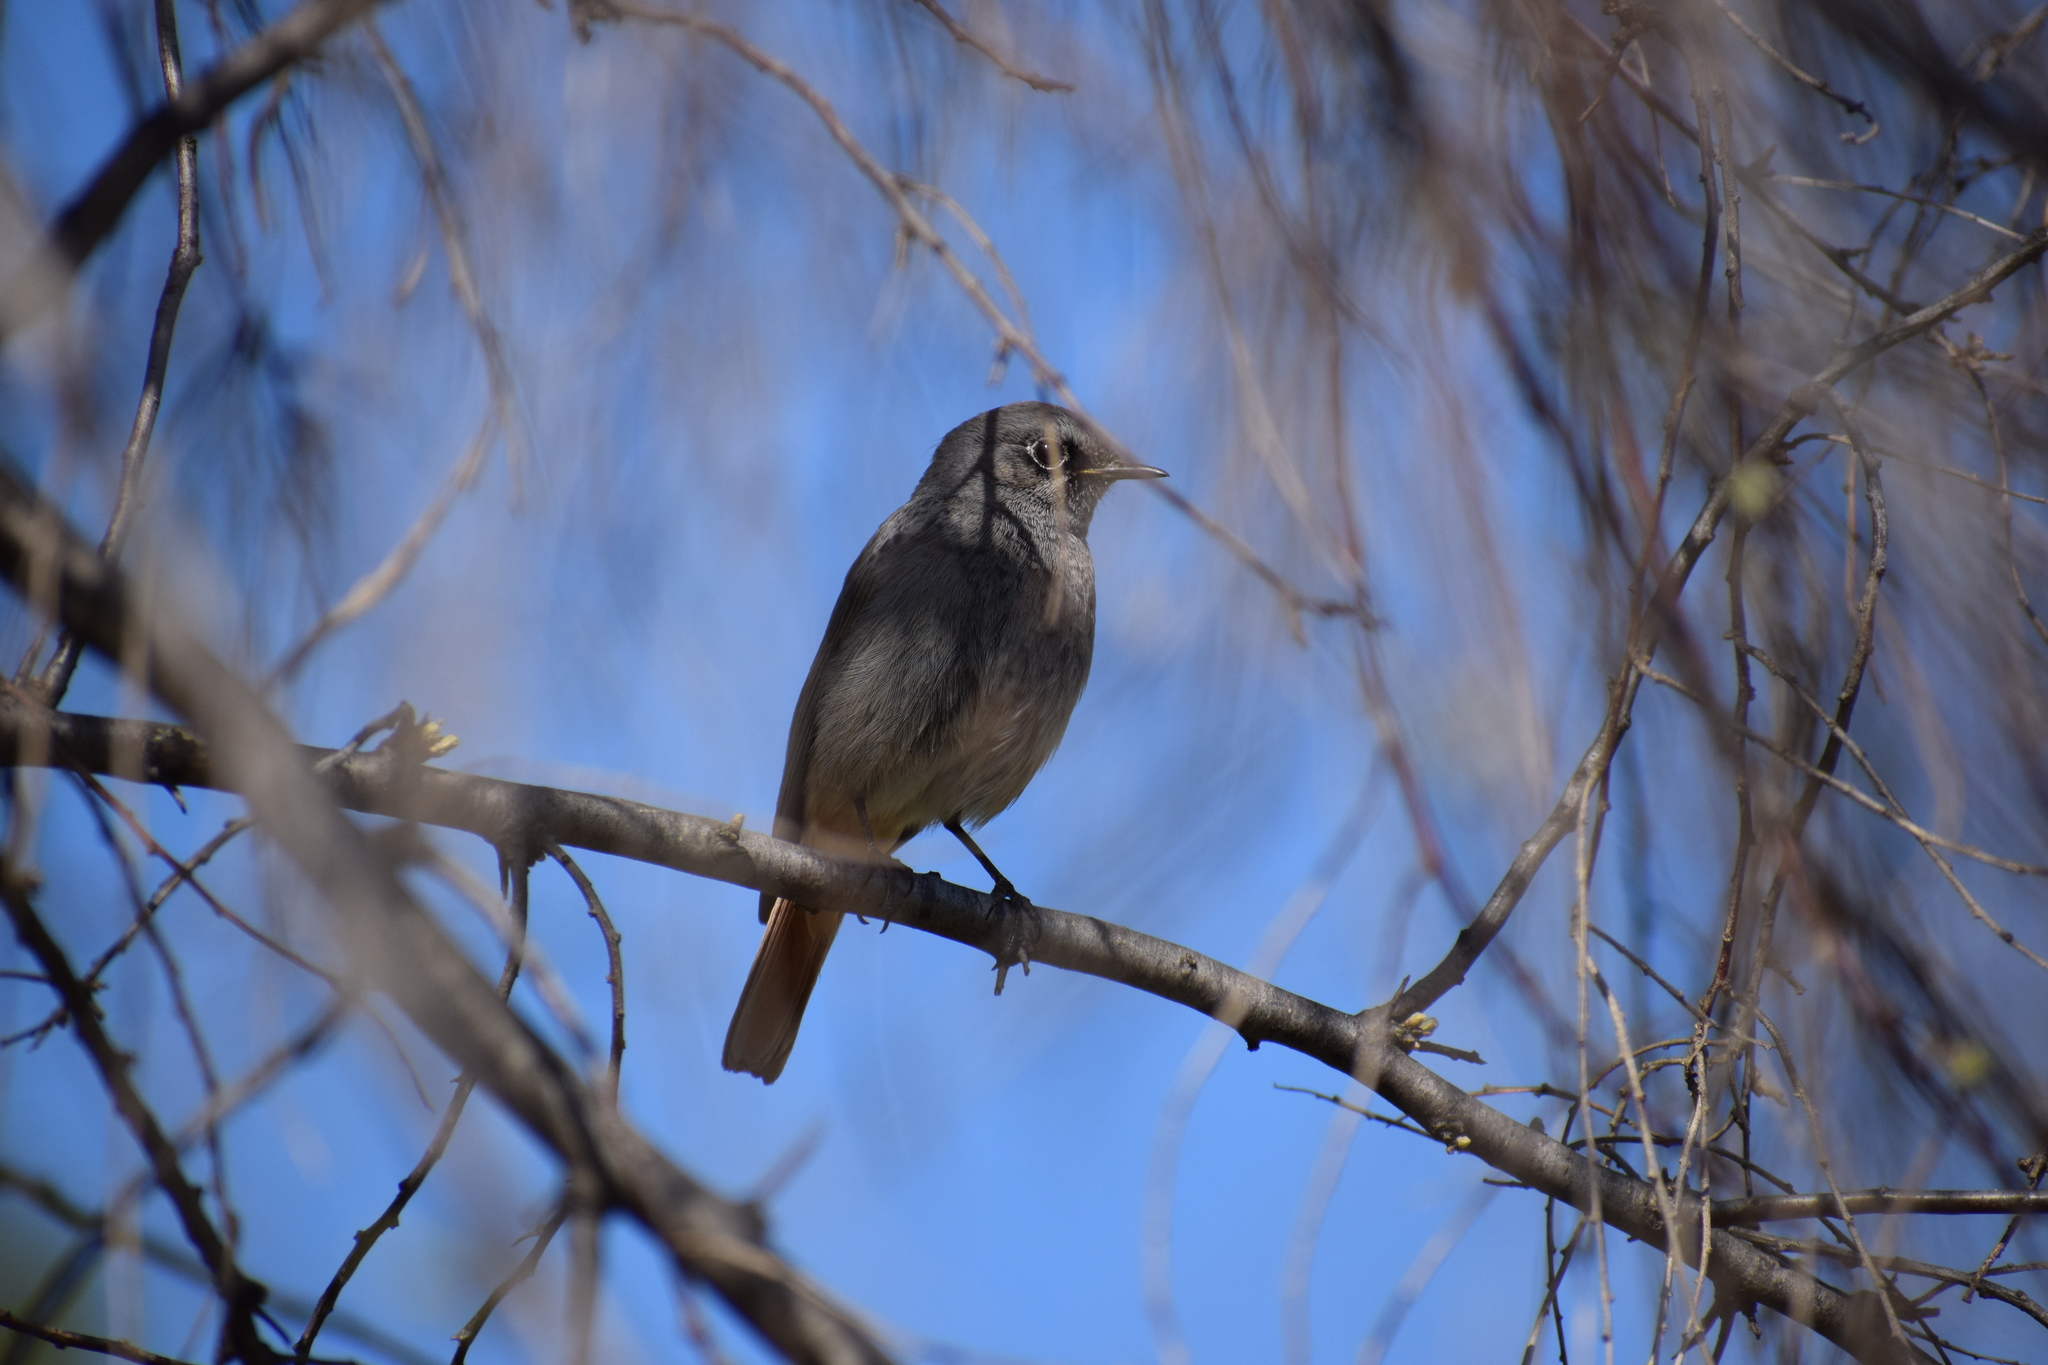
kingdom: Animalia
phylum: Chordata
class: Aves
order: Passeriformes
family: Muscicapidae
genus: Phoenicurus
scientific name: Phoenicurus ochruros
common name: Black redstart
